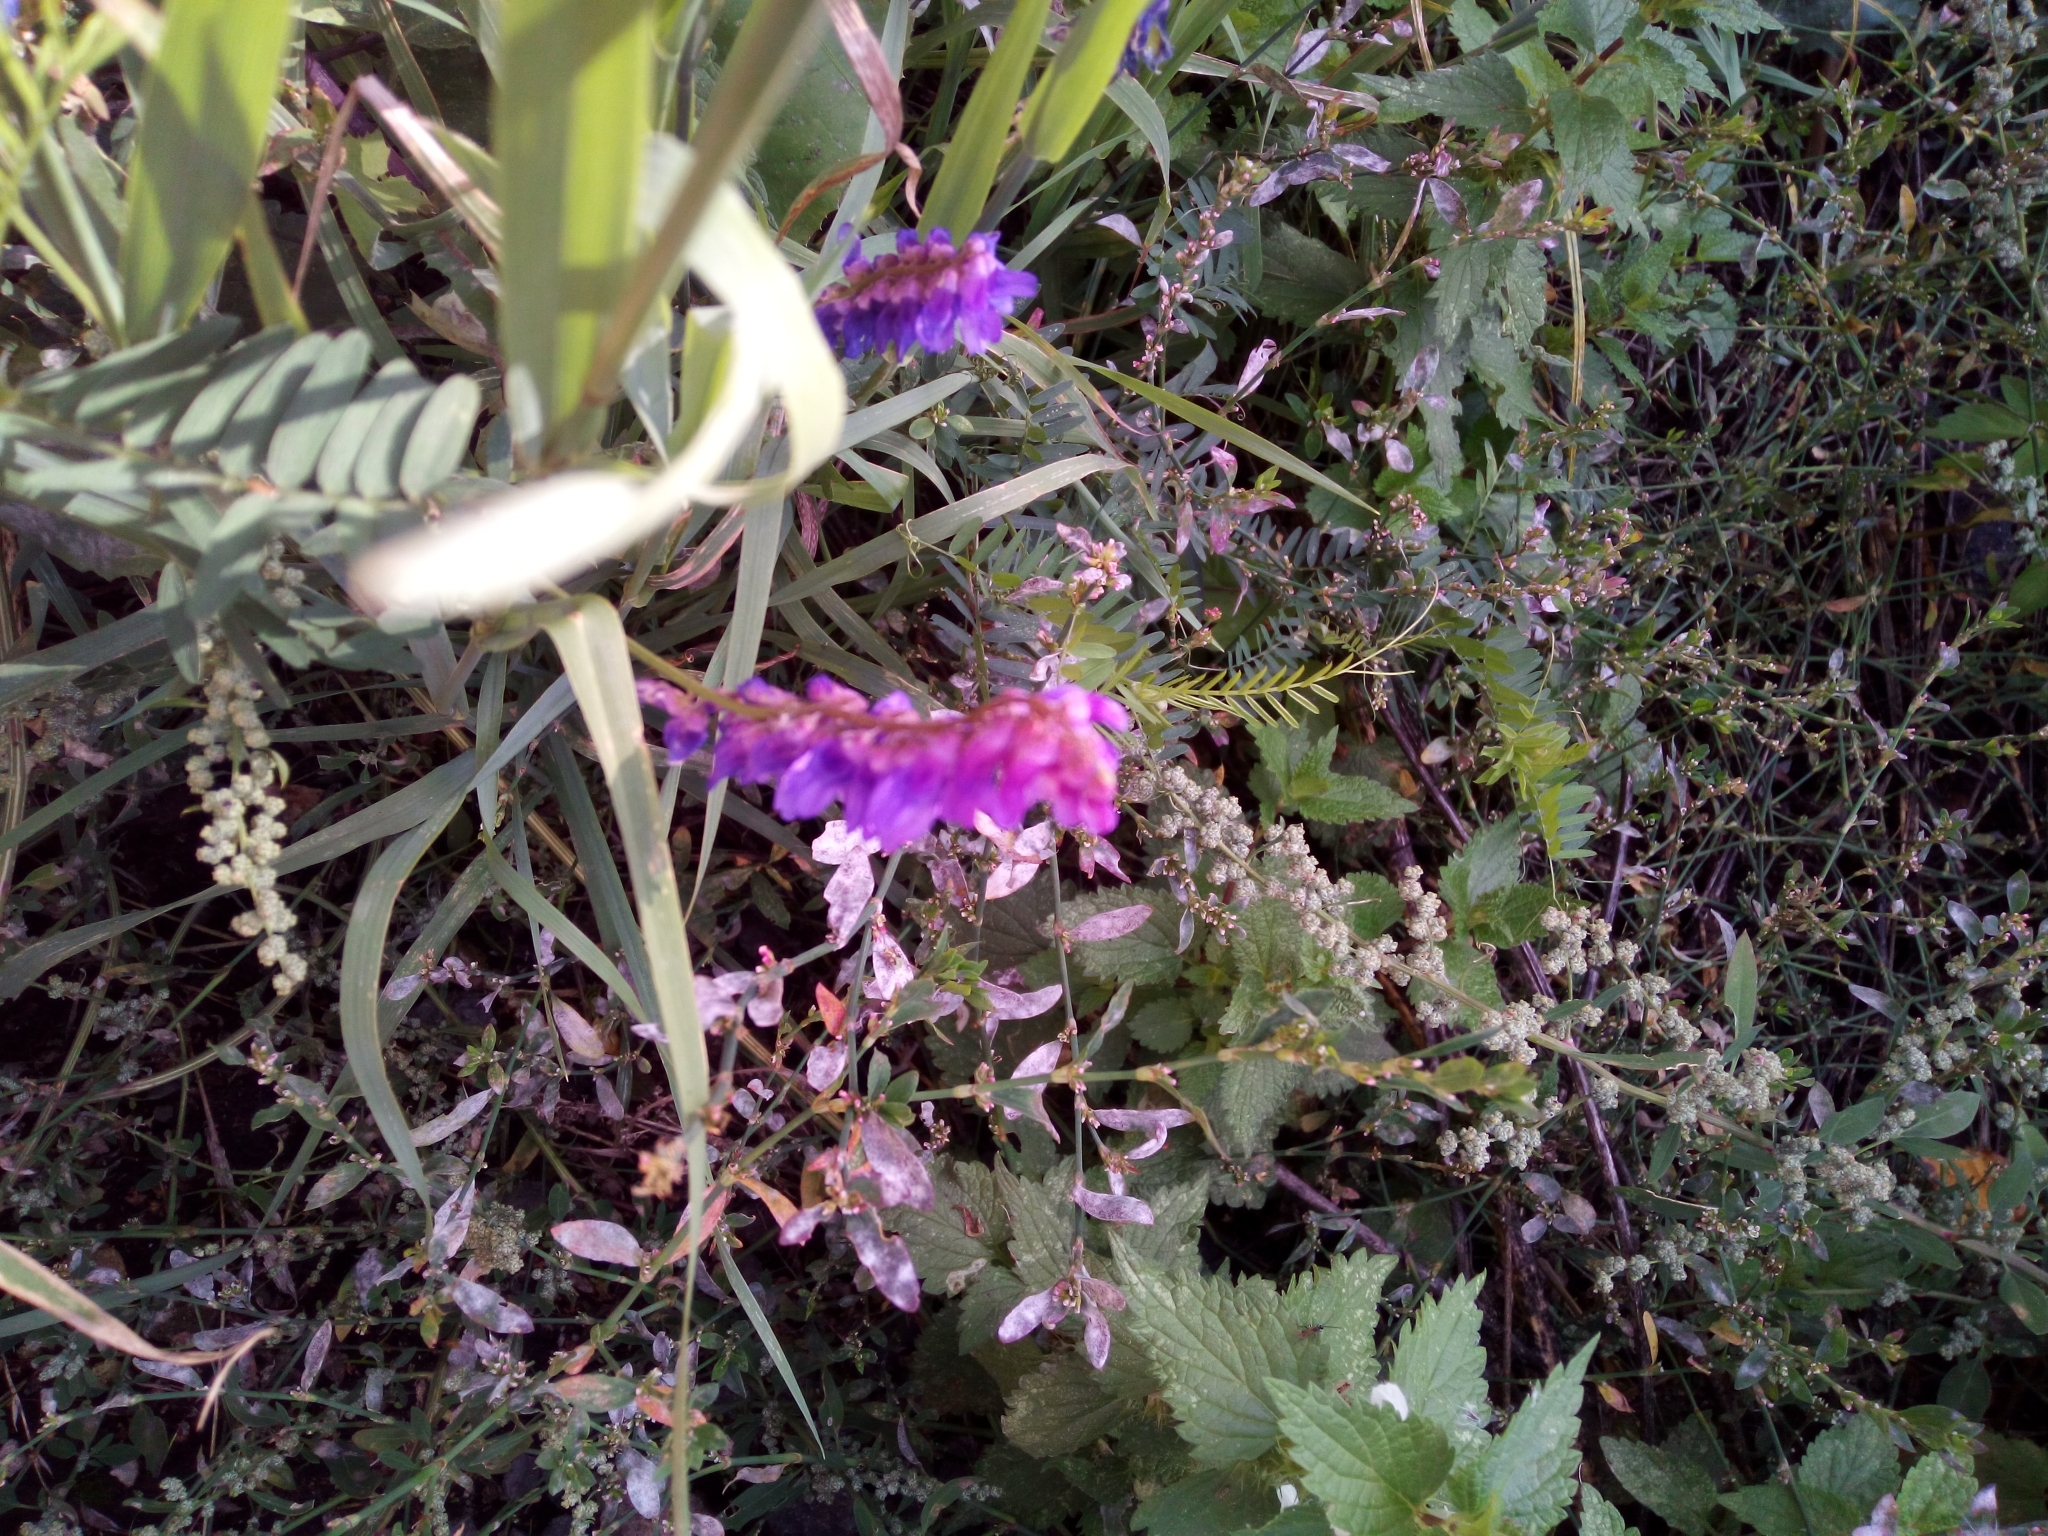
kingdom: Plantae
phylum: Tracheophyta
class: Magnoliopsida
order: Fabales
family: Fabaceae
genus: Vicia
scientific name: Vicia cracca
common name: Bird vetch
